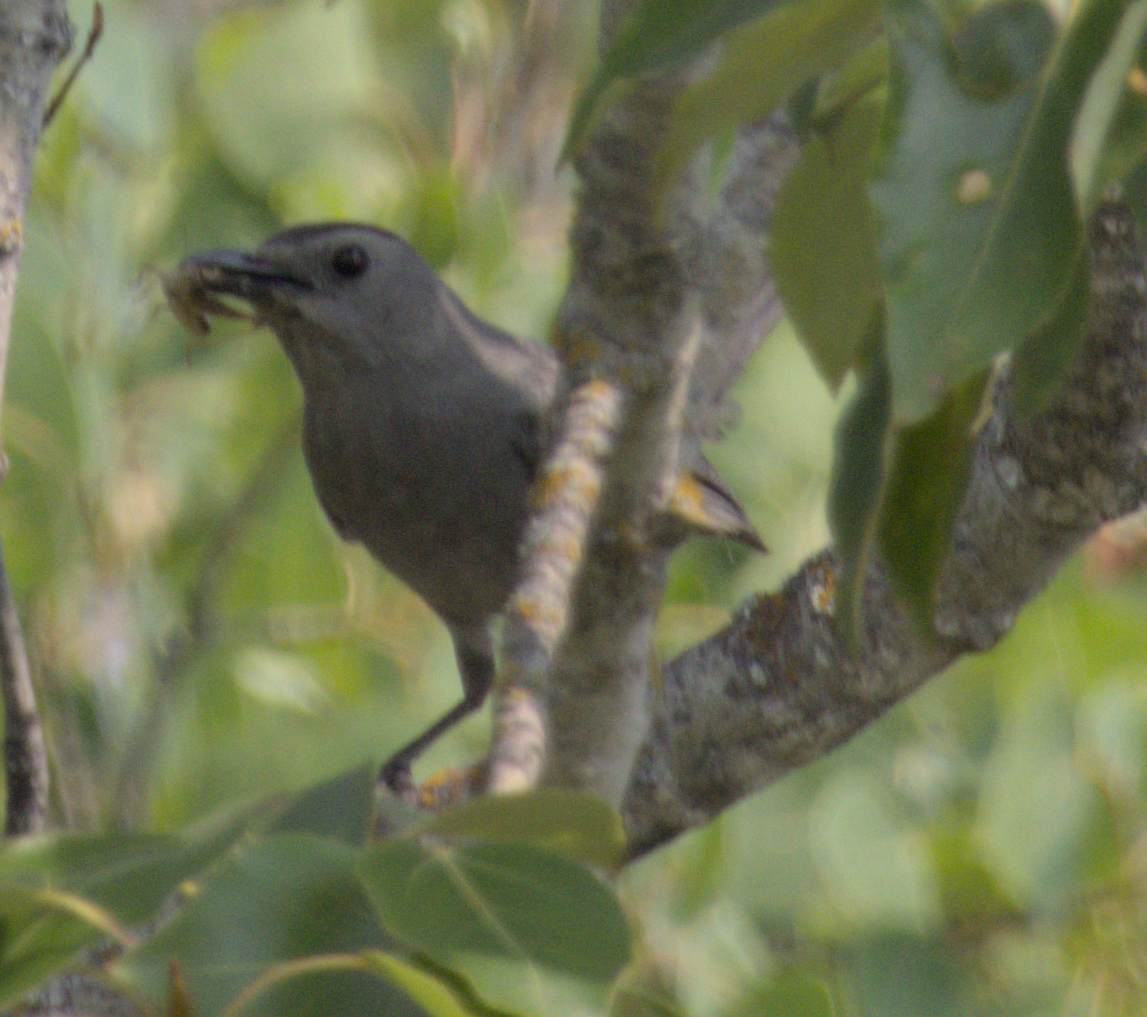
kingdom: Animalia
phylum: Chordata
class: Aves
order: Passeriformes
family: Mimidae
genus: Dumetella
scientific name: Dumetella carolinensis
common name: Gray catbird
